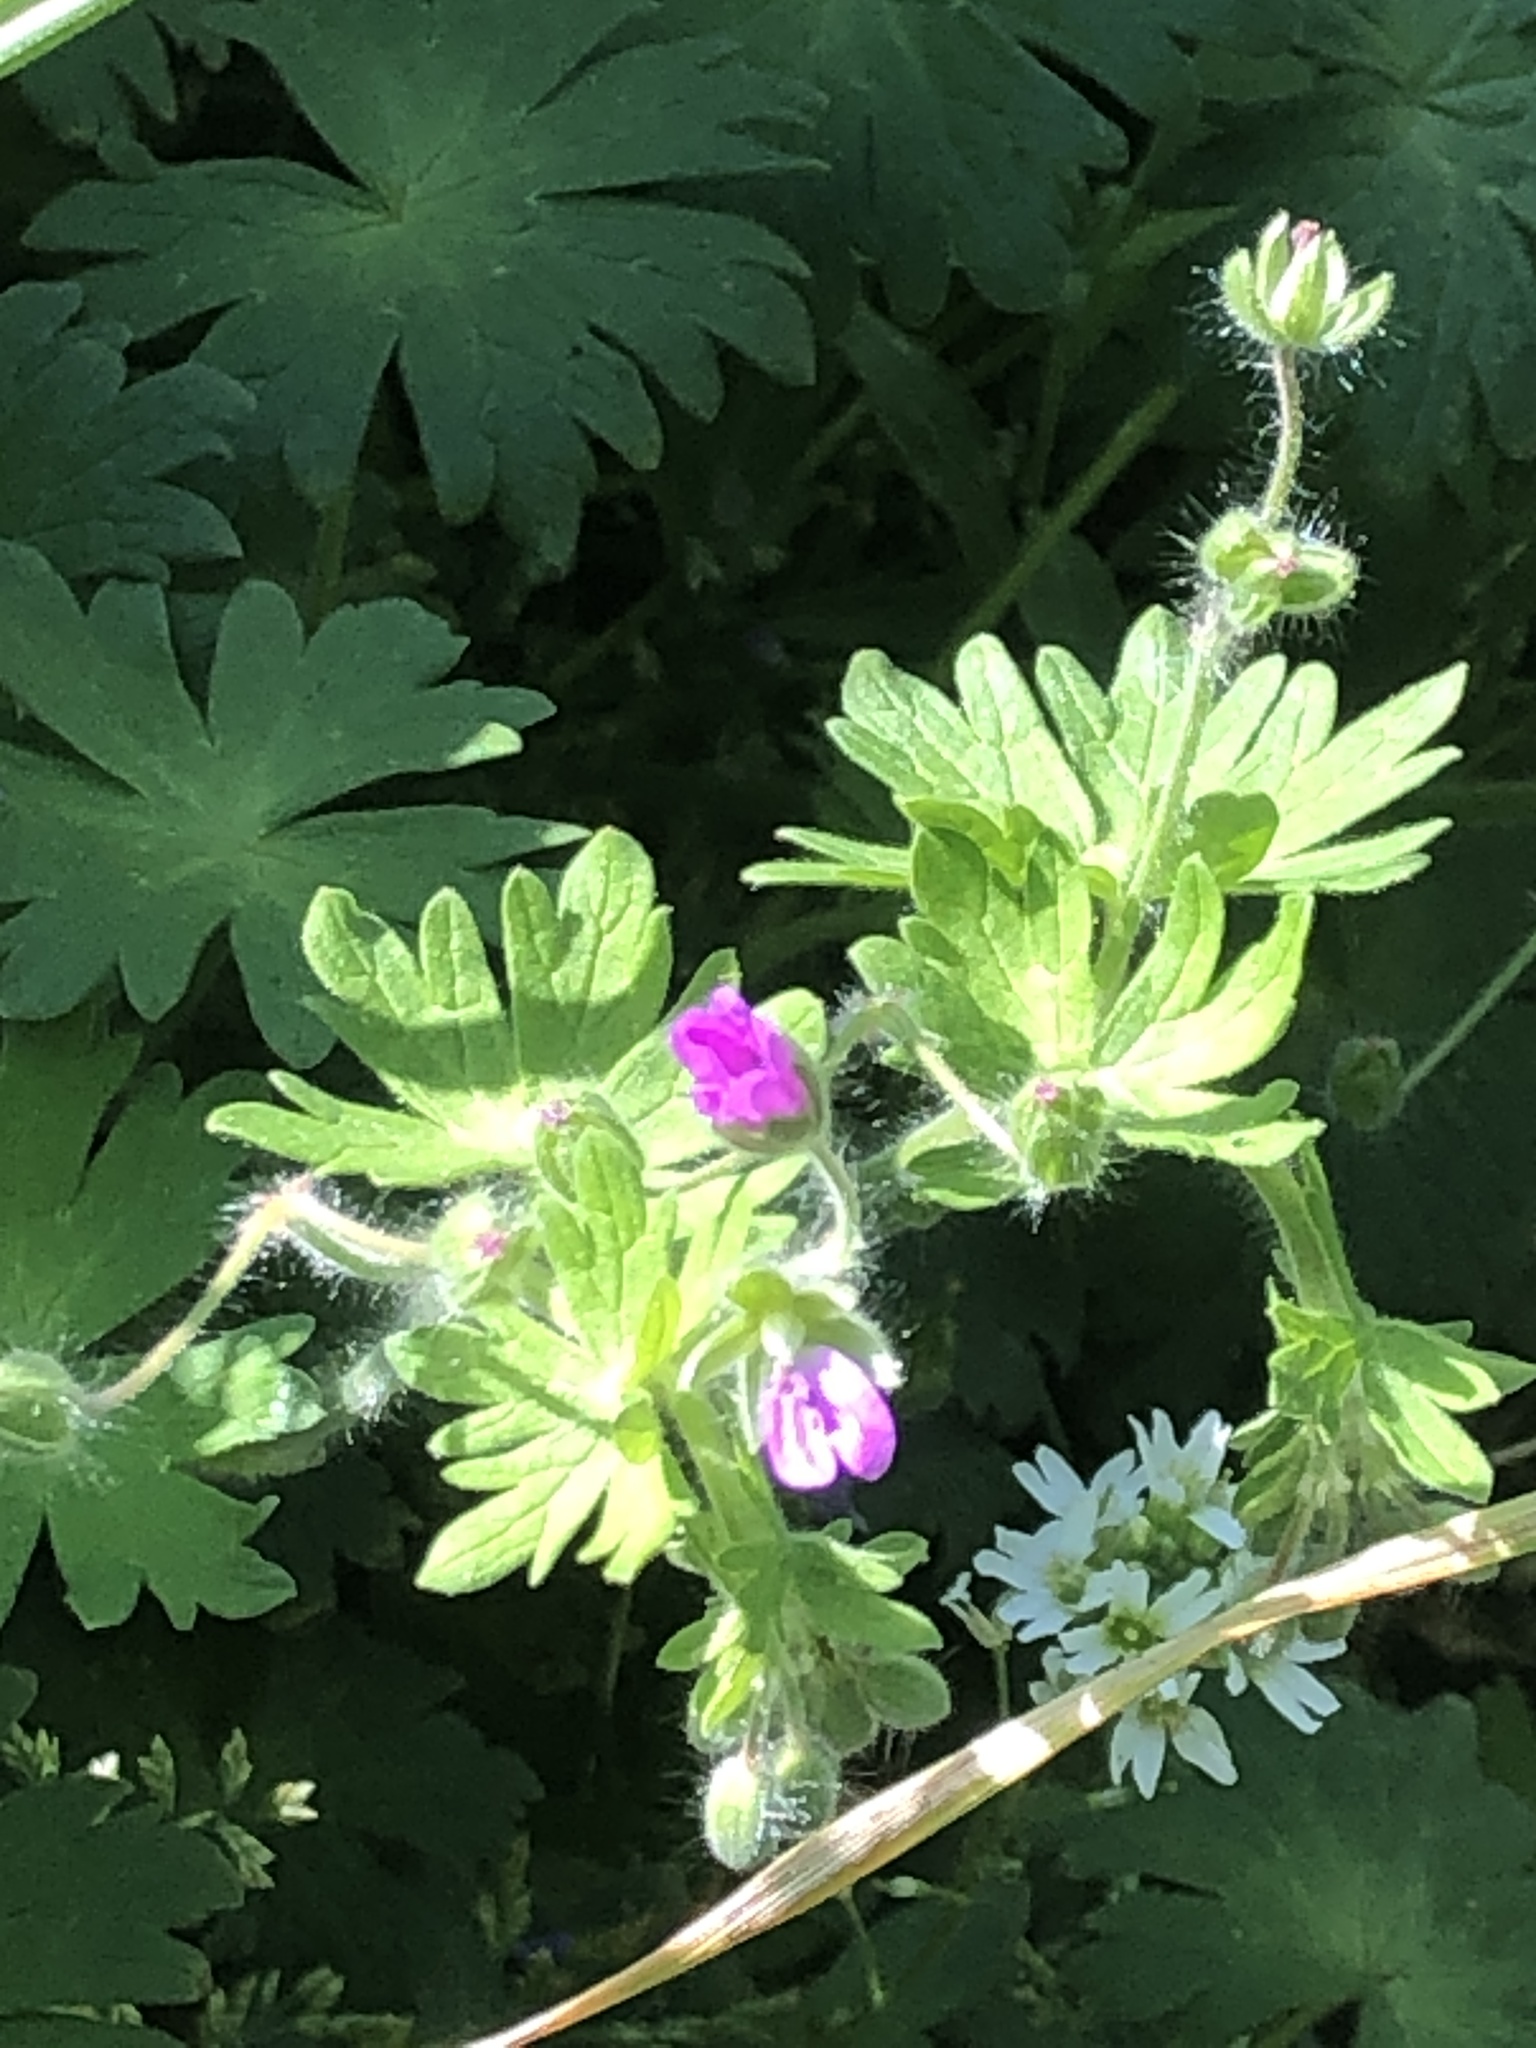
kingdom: Plantae
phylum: Tracheophyta
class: Magnoliopsida
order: Geraniales
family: Geraniaceae
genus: Geranium
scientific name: Geranium molle
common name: Dove's-foot crane's-bill
